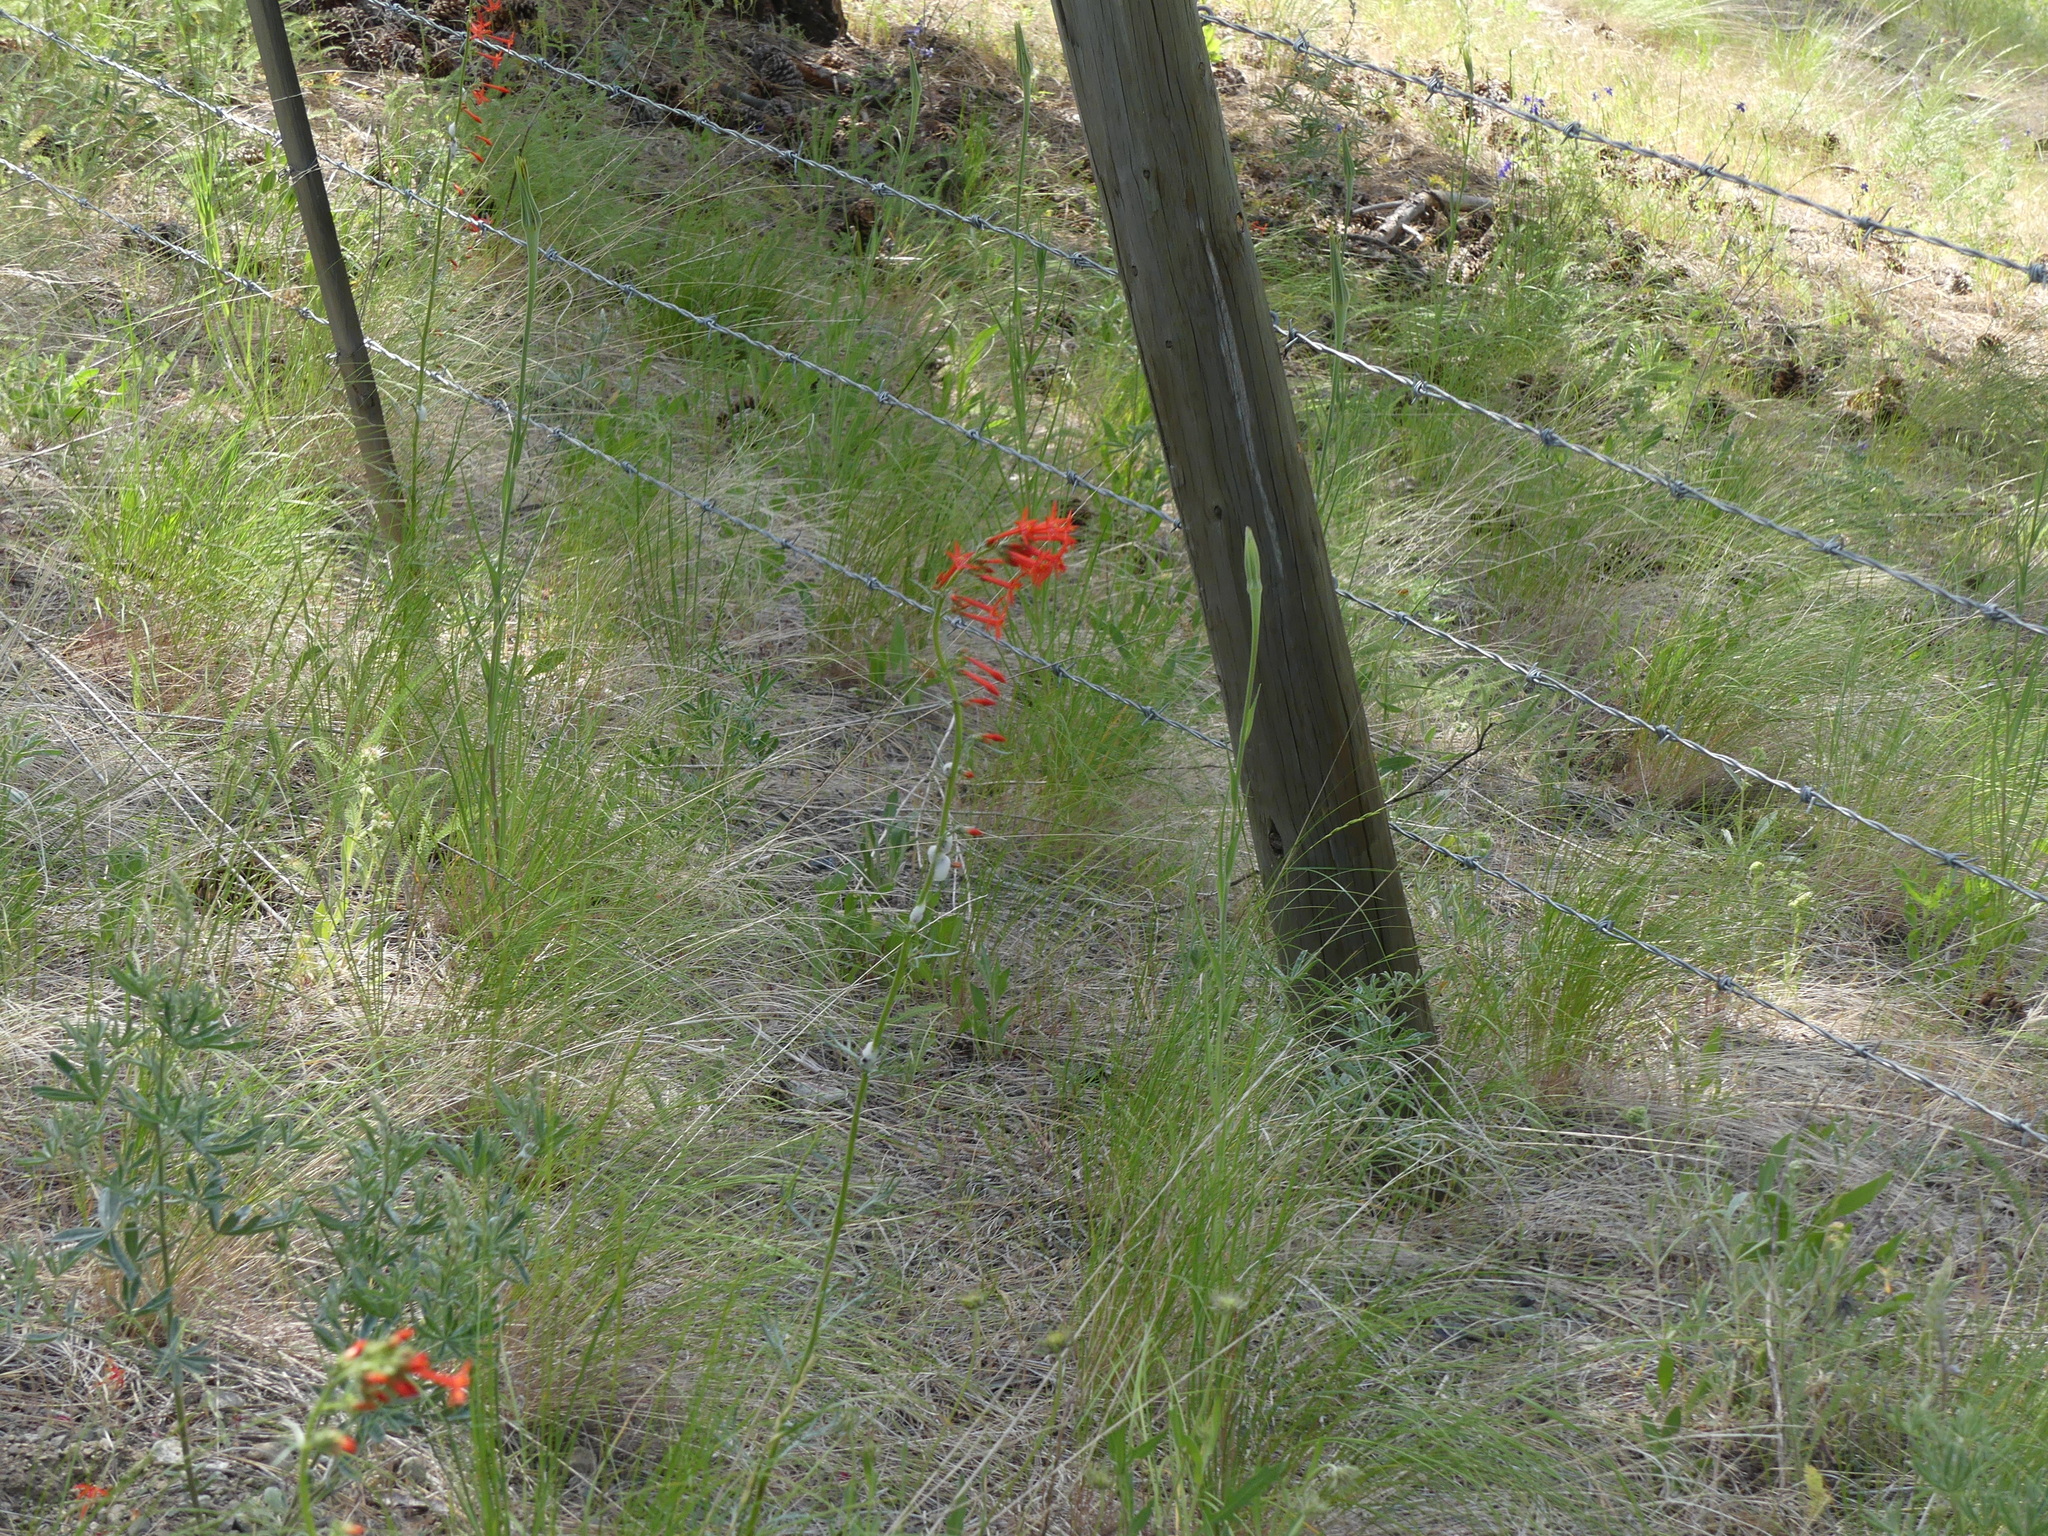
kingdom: Plantae
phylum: Tracheophyta
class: Magnoliopsida
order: Ericales
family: Polemoniaceae
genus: Ipomopsis
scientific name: Ipomopsis aggregata
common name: Scarlet gilia
